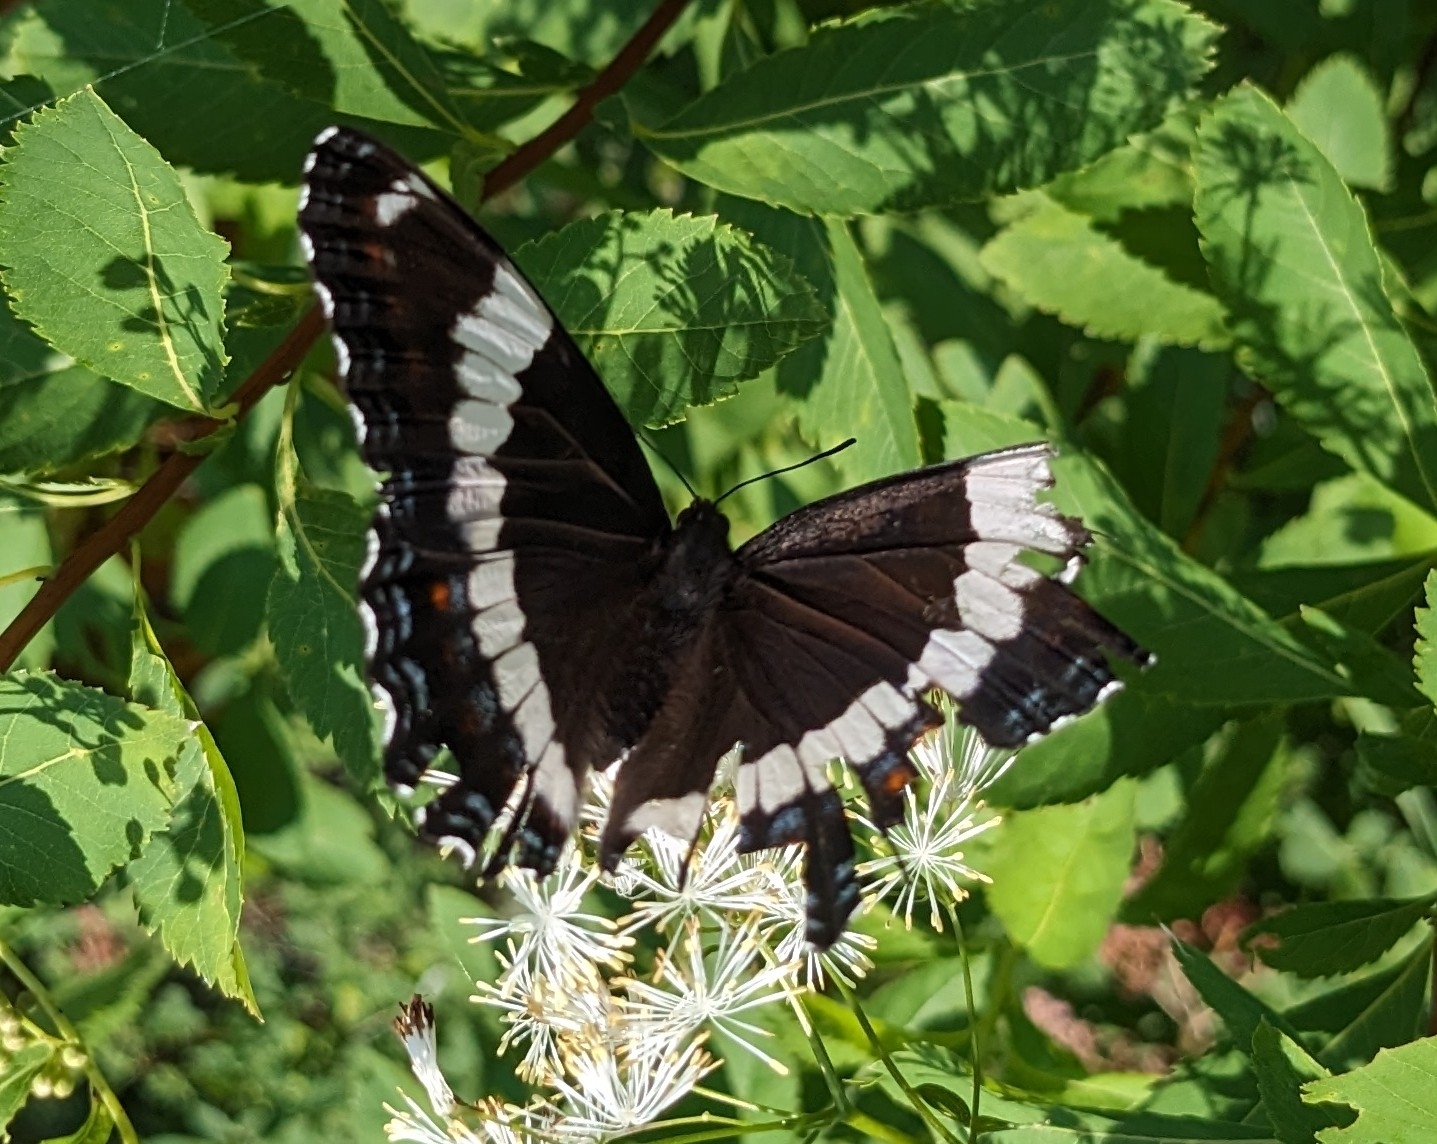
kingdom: Animalia
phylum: Arthropoda
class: Insecta
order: Lepidoptera
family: Nymphalidae
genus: Limenitis
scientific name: Limenitis arthemis
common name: Red-spotted admiral
